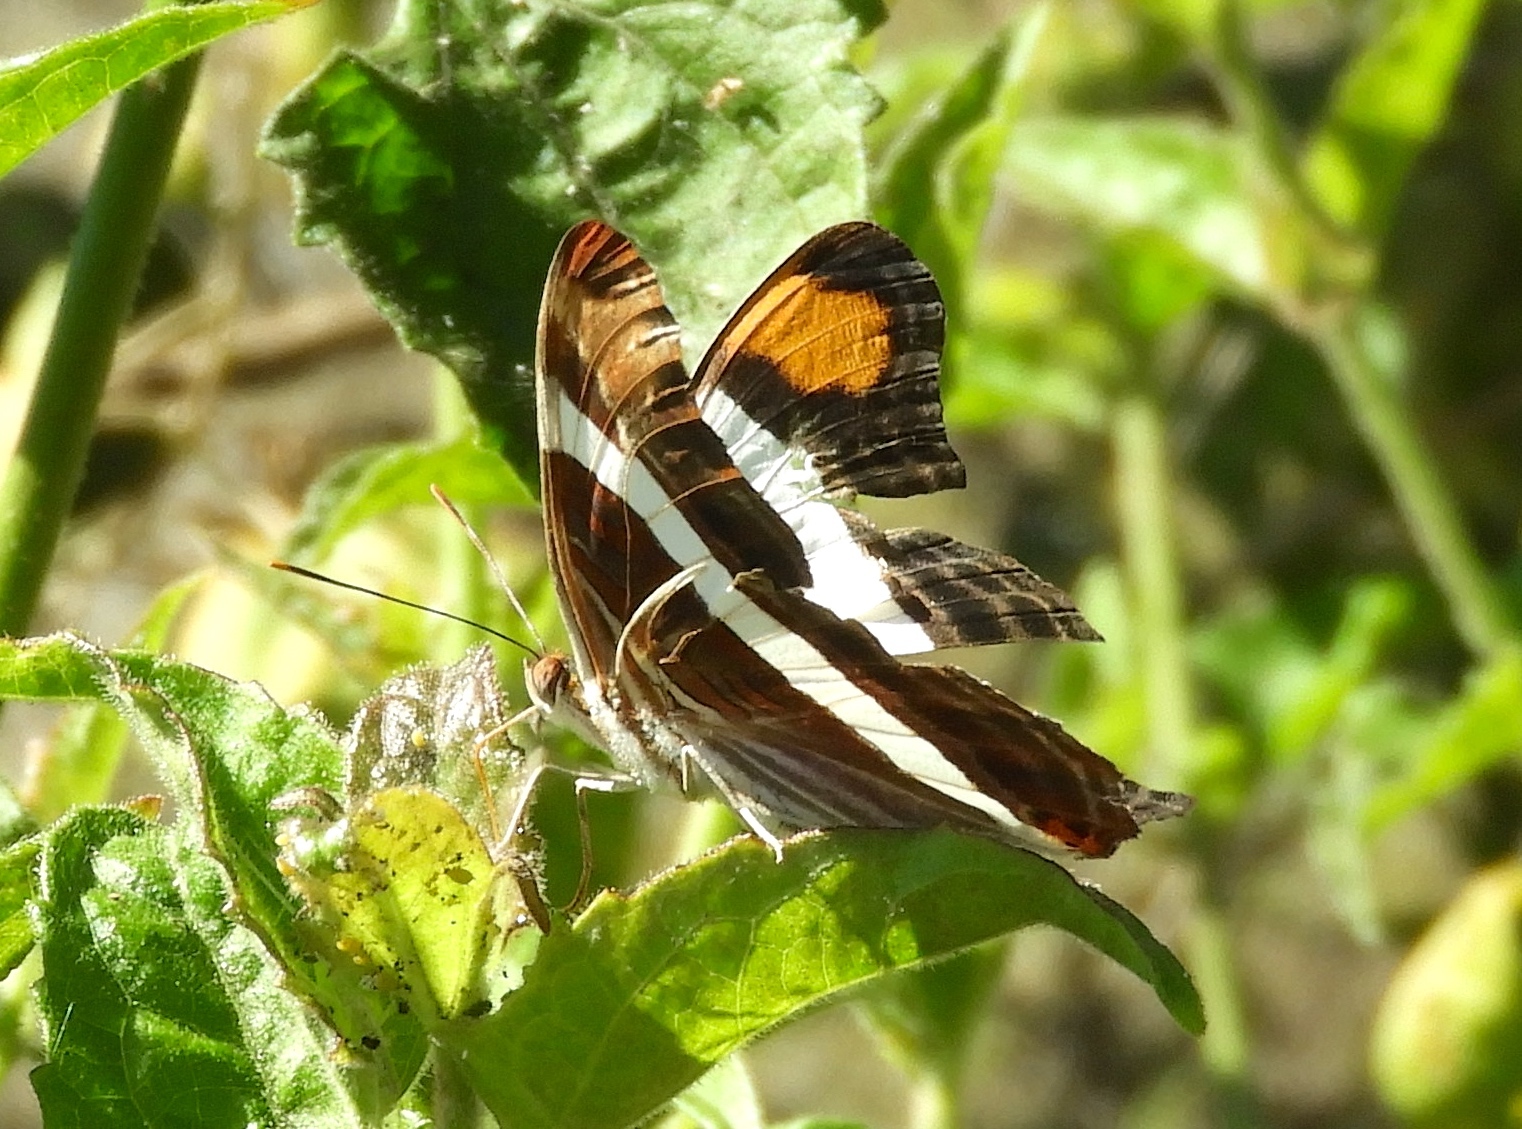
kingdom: Animalia
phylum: Arthropoda
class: Insecta
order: Lepidoptera
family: Nymphalidae
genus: Limenitis
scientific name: Limenitis fessonia
